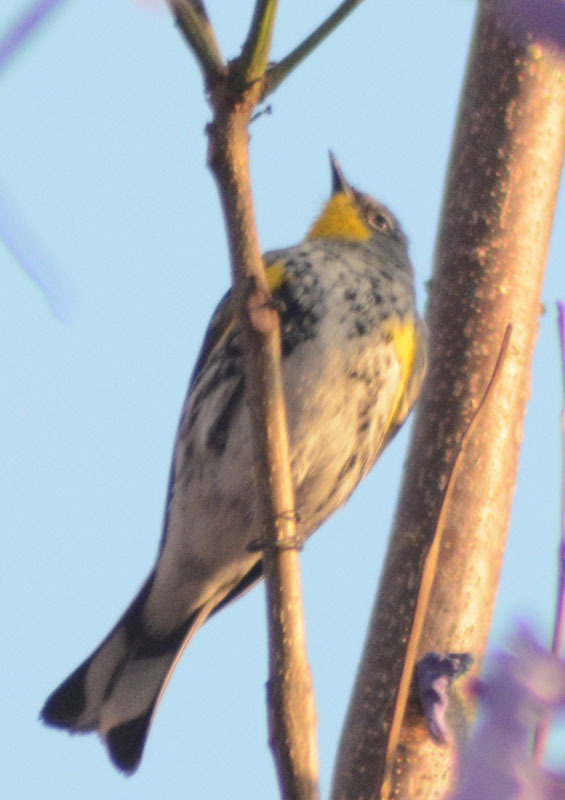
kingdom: Animalia
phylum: Chordata
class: Aves
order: Passeriformes
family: Parulidae
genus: Setophaga
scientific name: Setophaga auduboni
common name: Audubon's warbler
